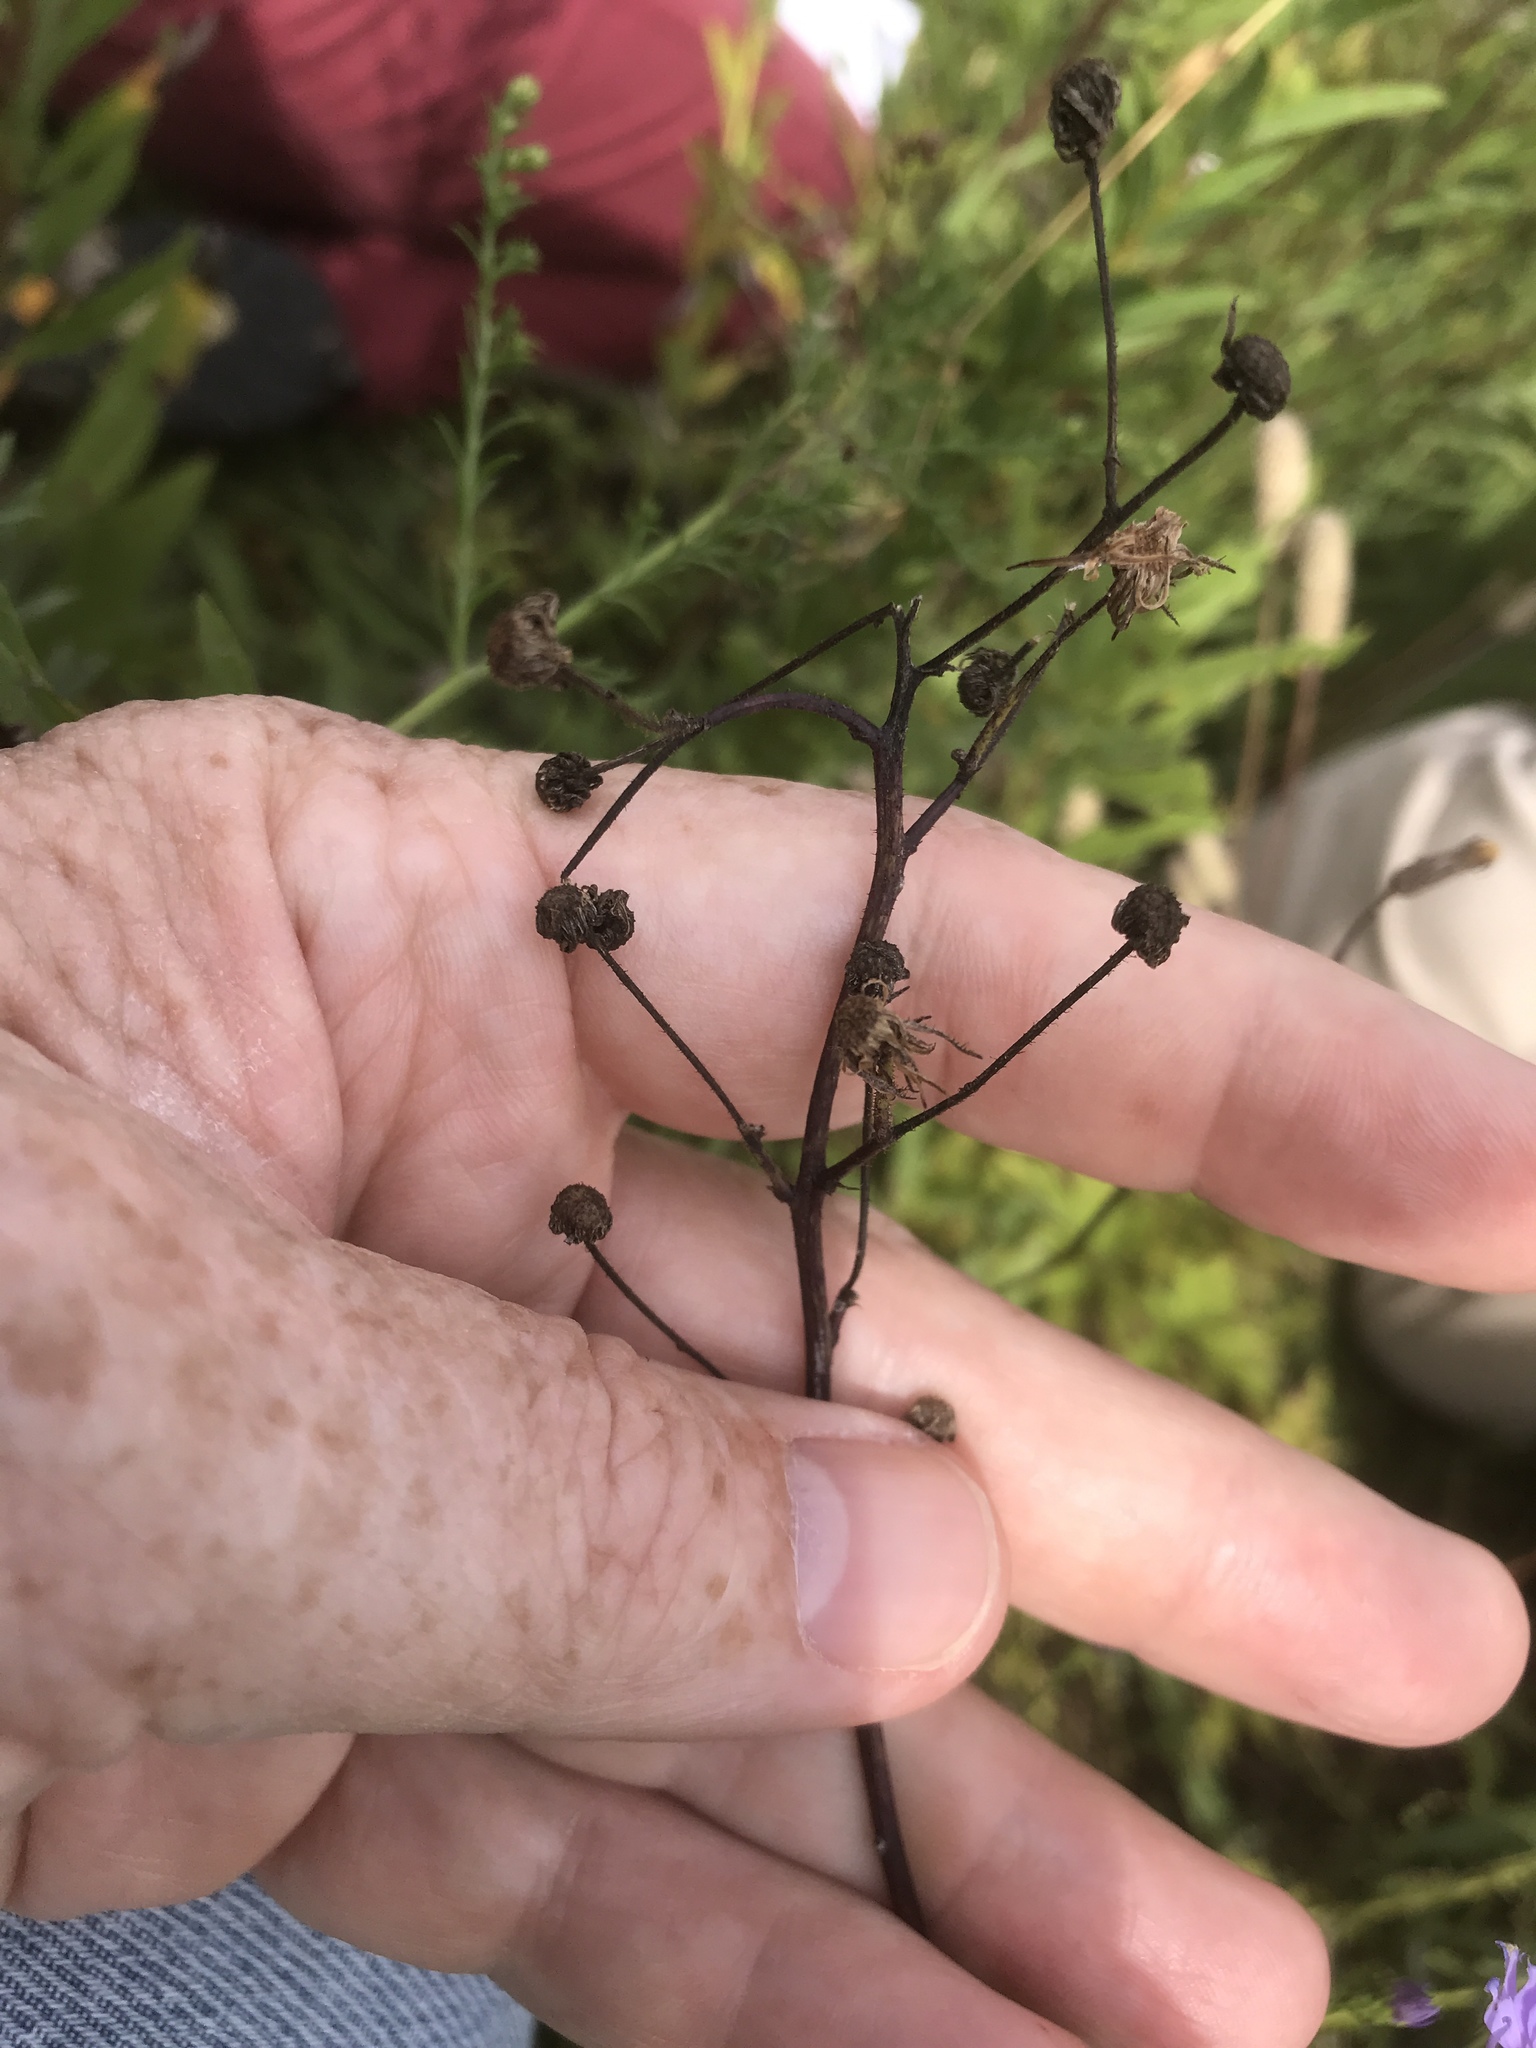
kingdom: Plantae
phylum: Tracheophyta
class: Magnoliopsida
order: Asterales
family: Asteraceae
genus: Hieracium
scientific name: Hieracium longipilum
